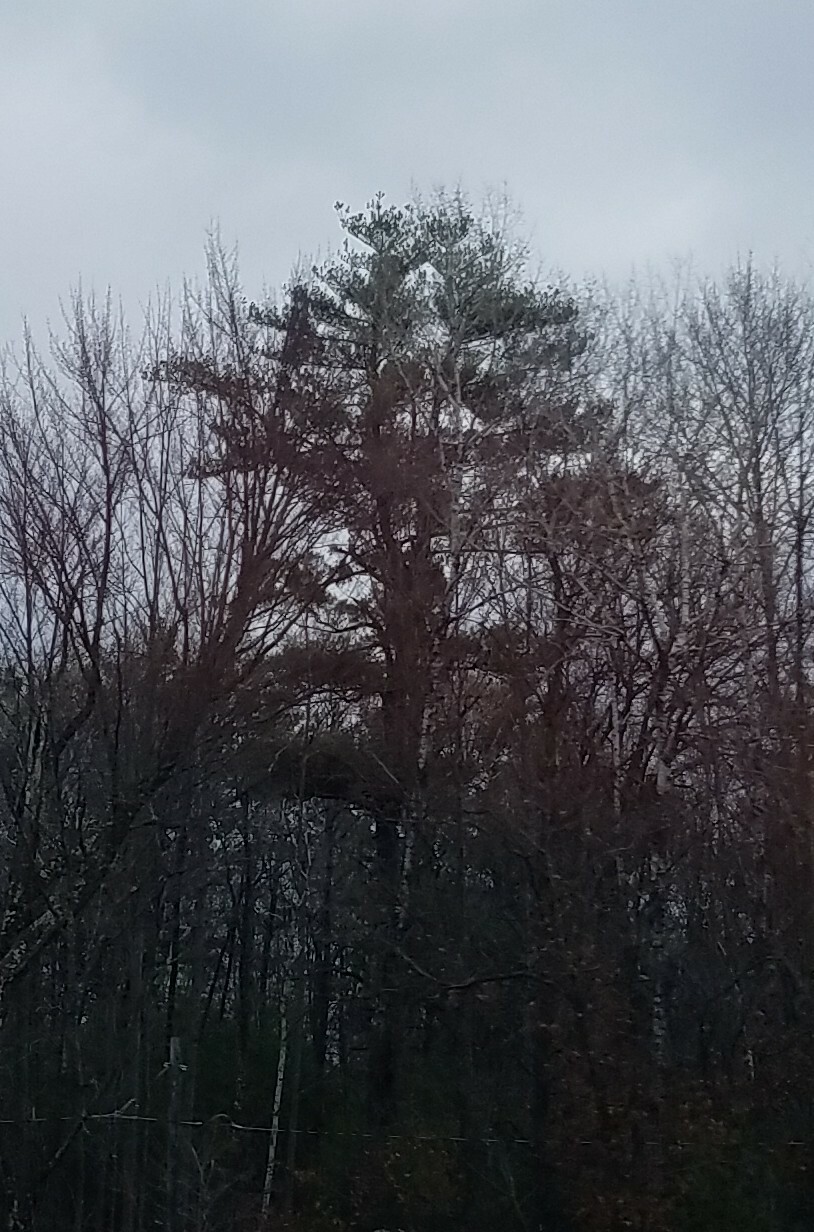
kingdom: Plantae
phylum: Tracheophyta
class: Pinopsida
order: Pinales
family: Pinaceae
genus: Pinus
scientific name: Pinus strobus
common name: Weymouth pine
